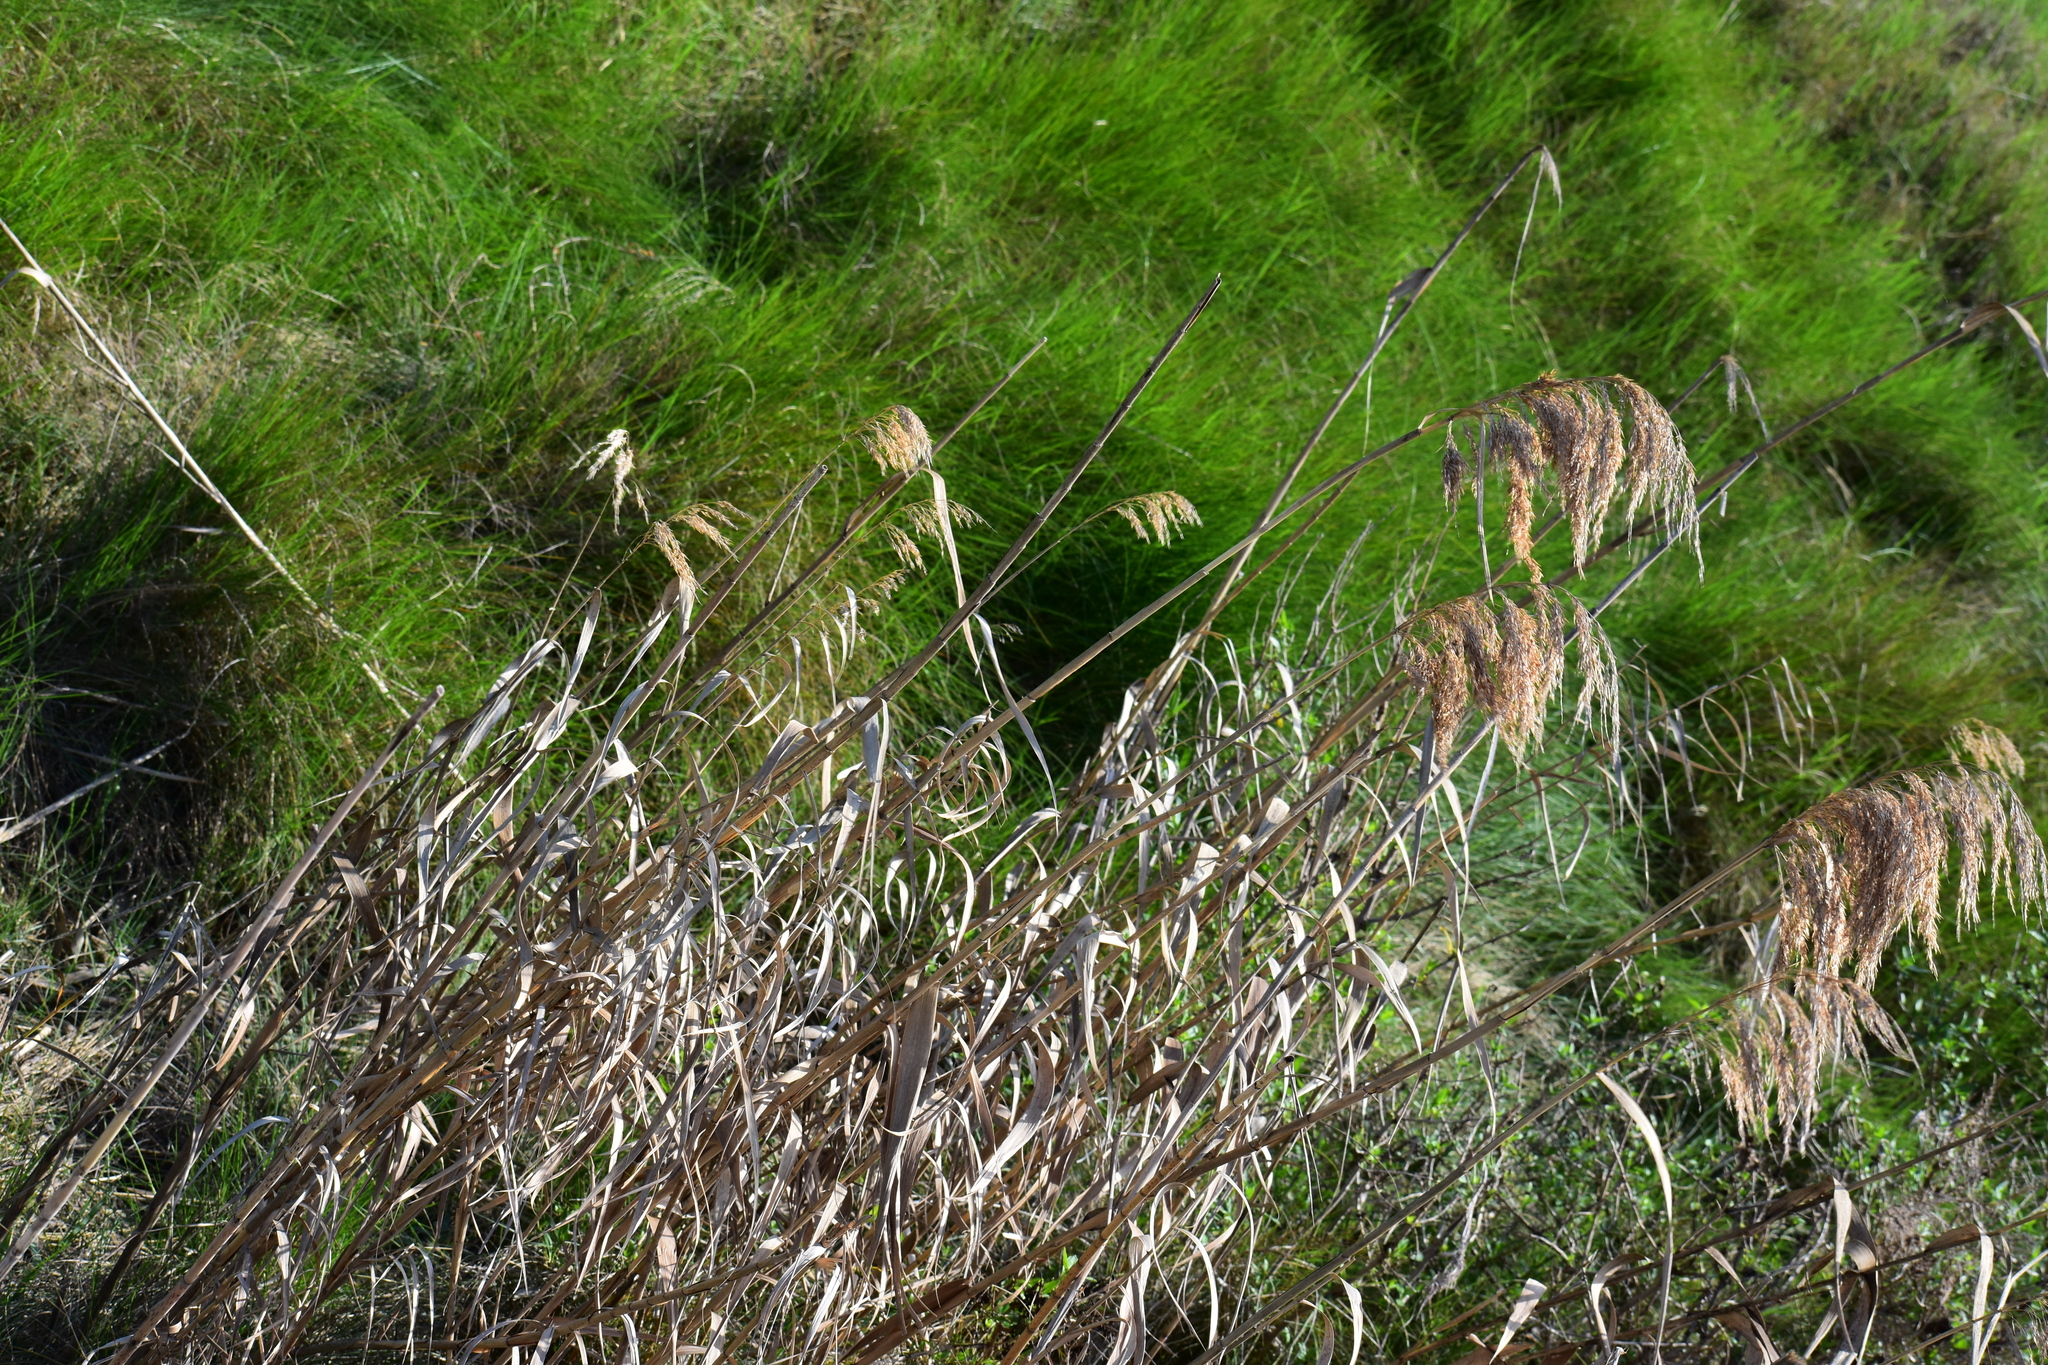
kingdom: Plantae
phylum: Tracheophyta
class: Liliopsida
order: Poales
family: Poaceae
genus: Phragmites
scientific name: Phragmites australis
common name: Common reed
